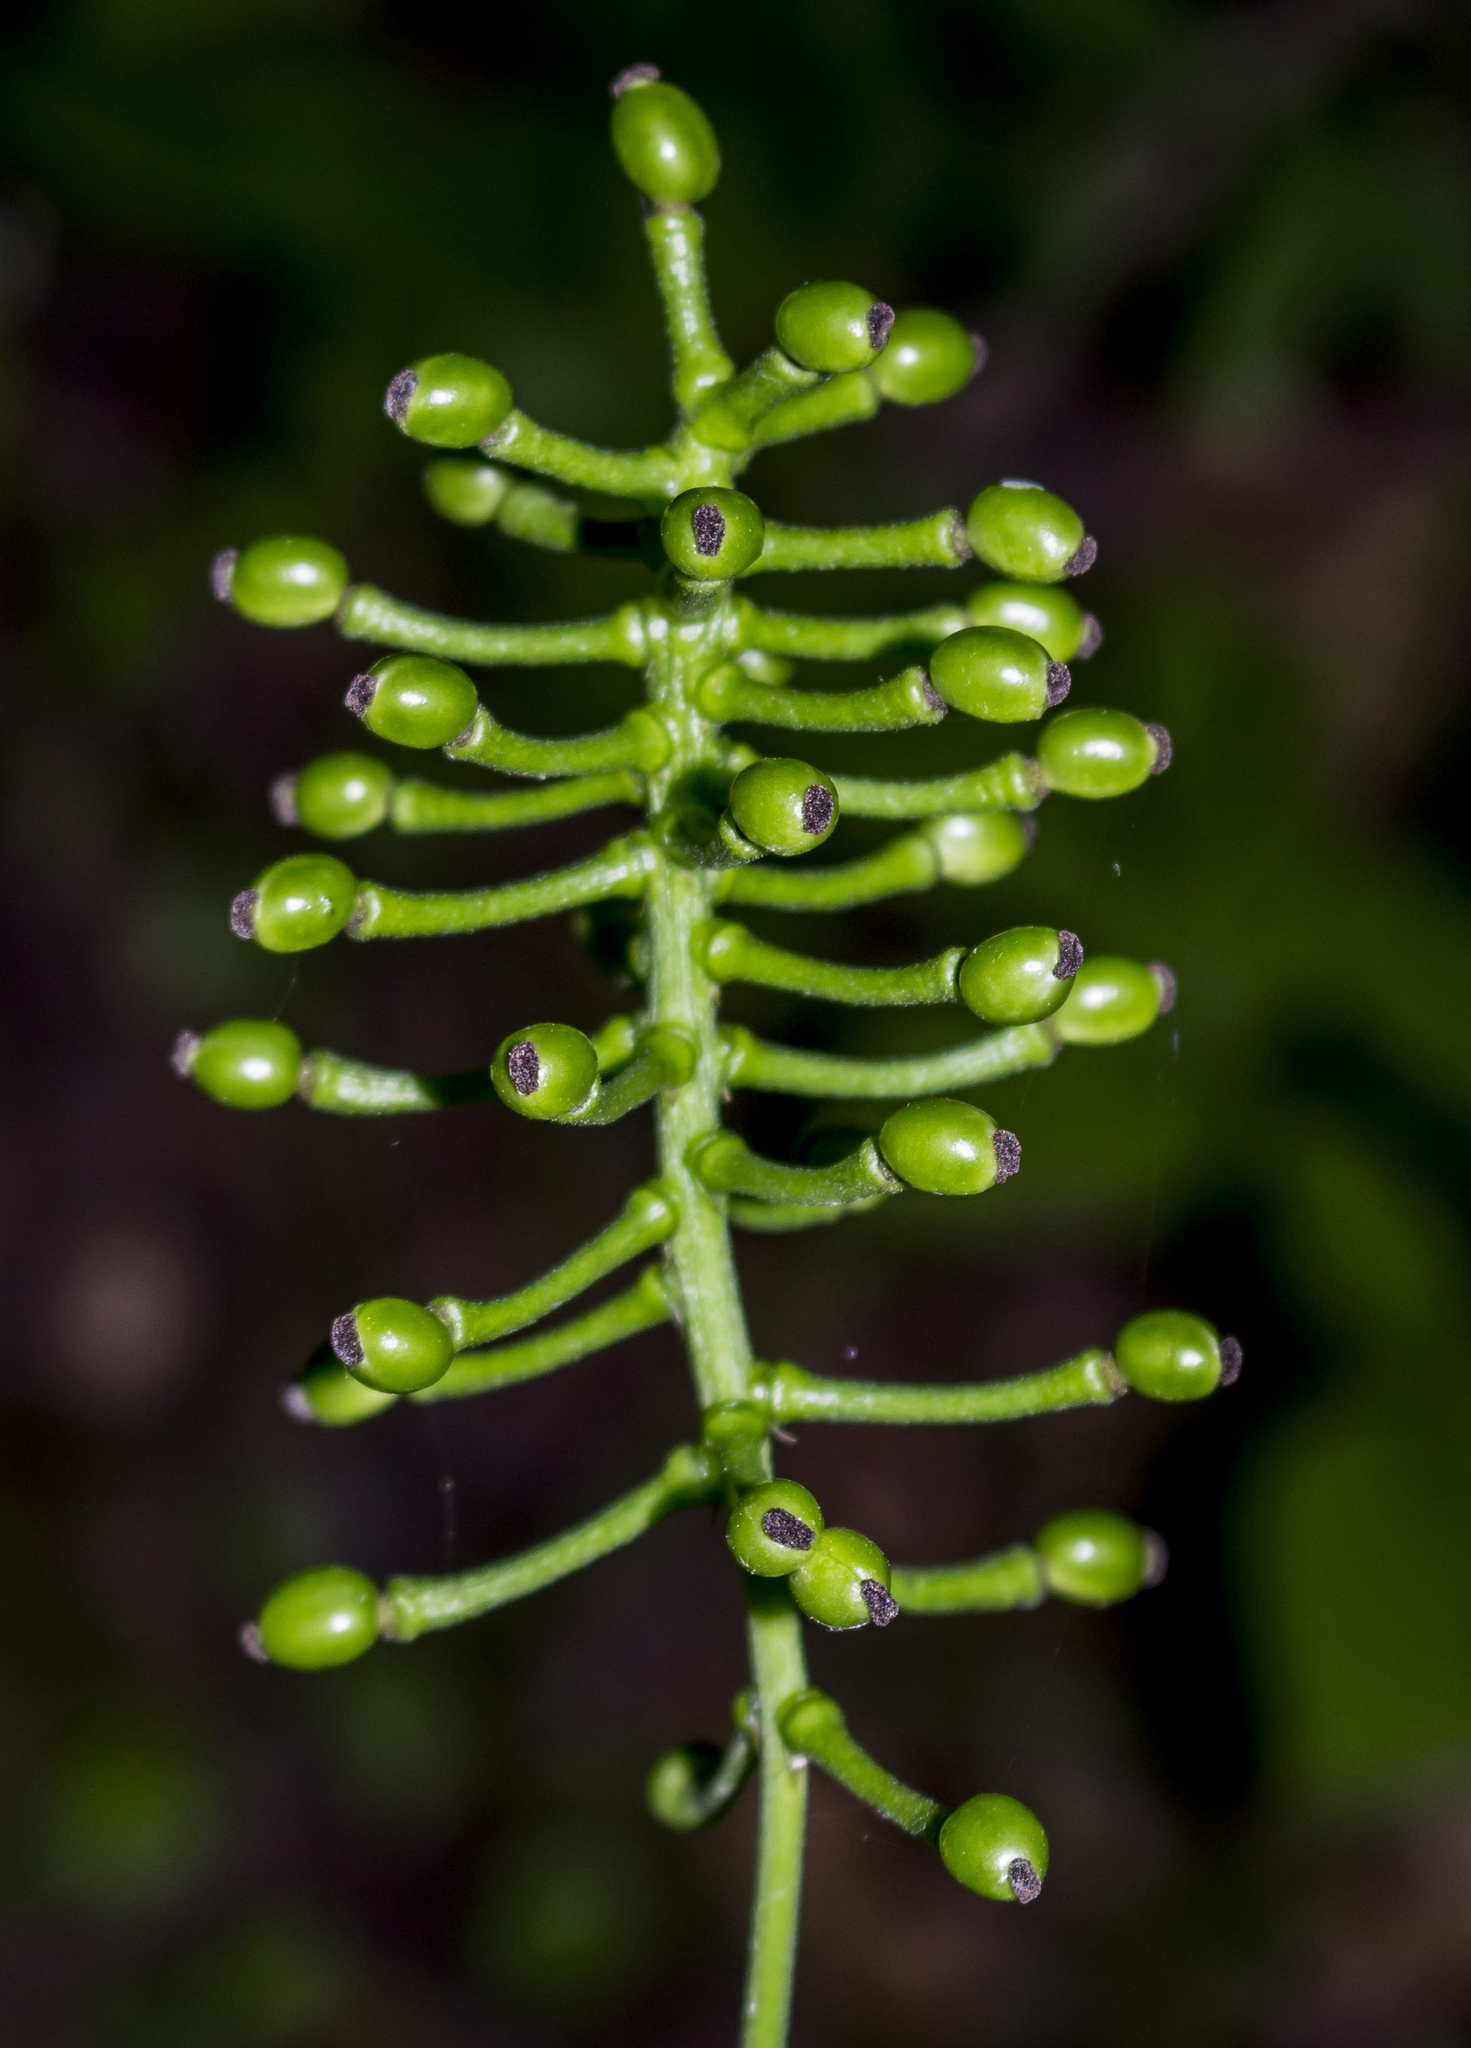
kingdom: Plantae
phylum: Tracheophyta
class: Magnoliopsida
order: Ranunculales
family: Ranunculaceae
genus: Actaea
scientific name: Actaea pachypoda
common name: Doll's-eyes
